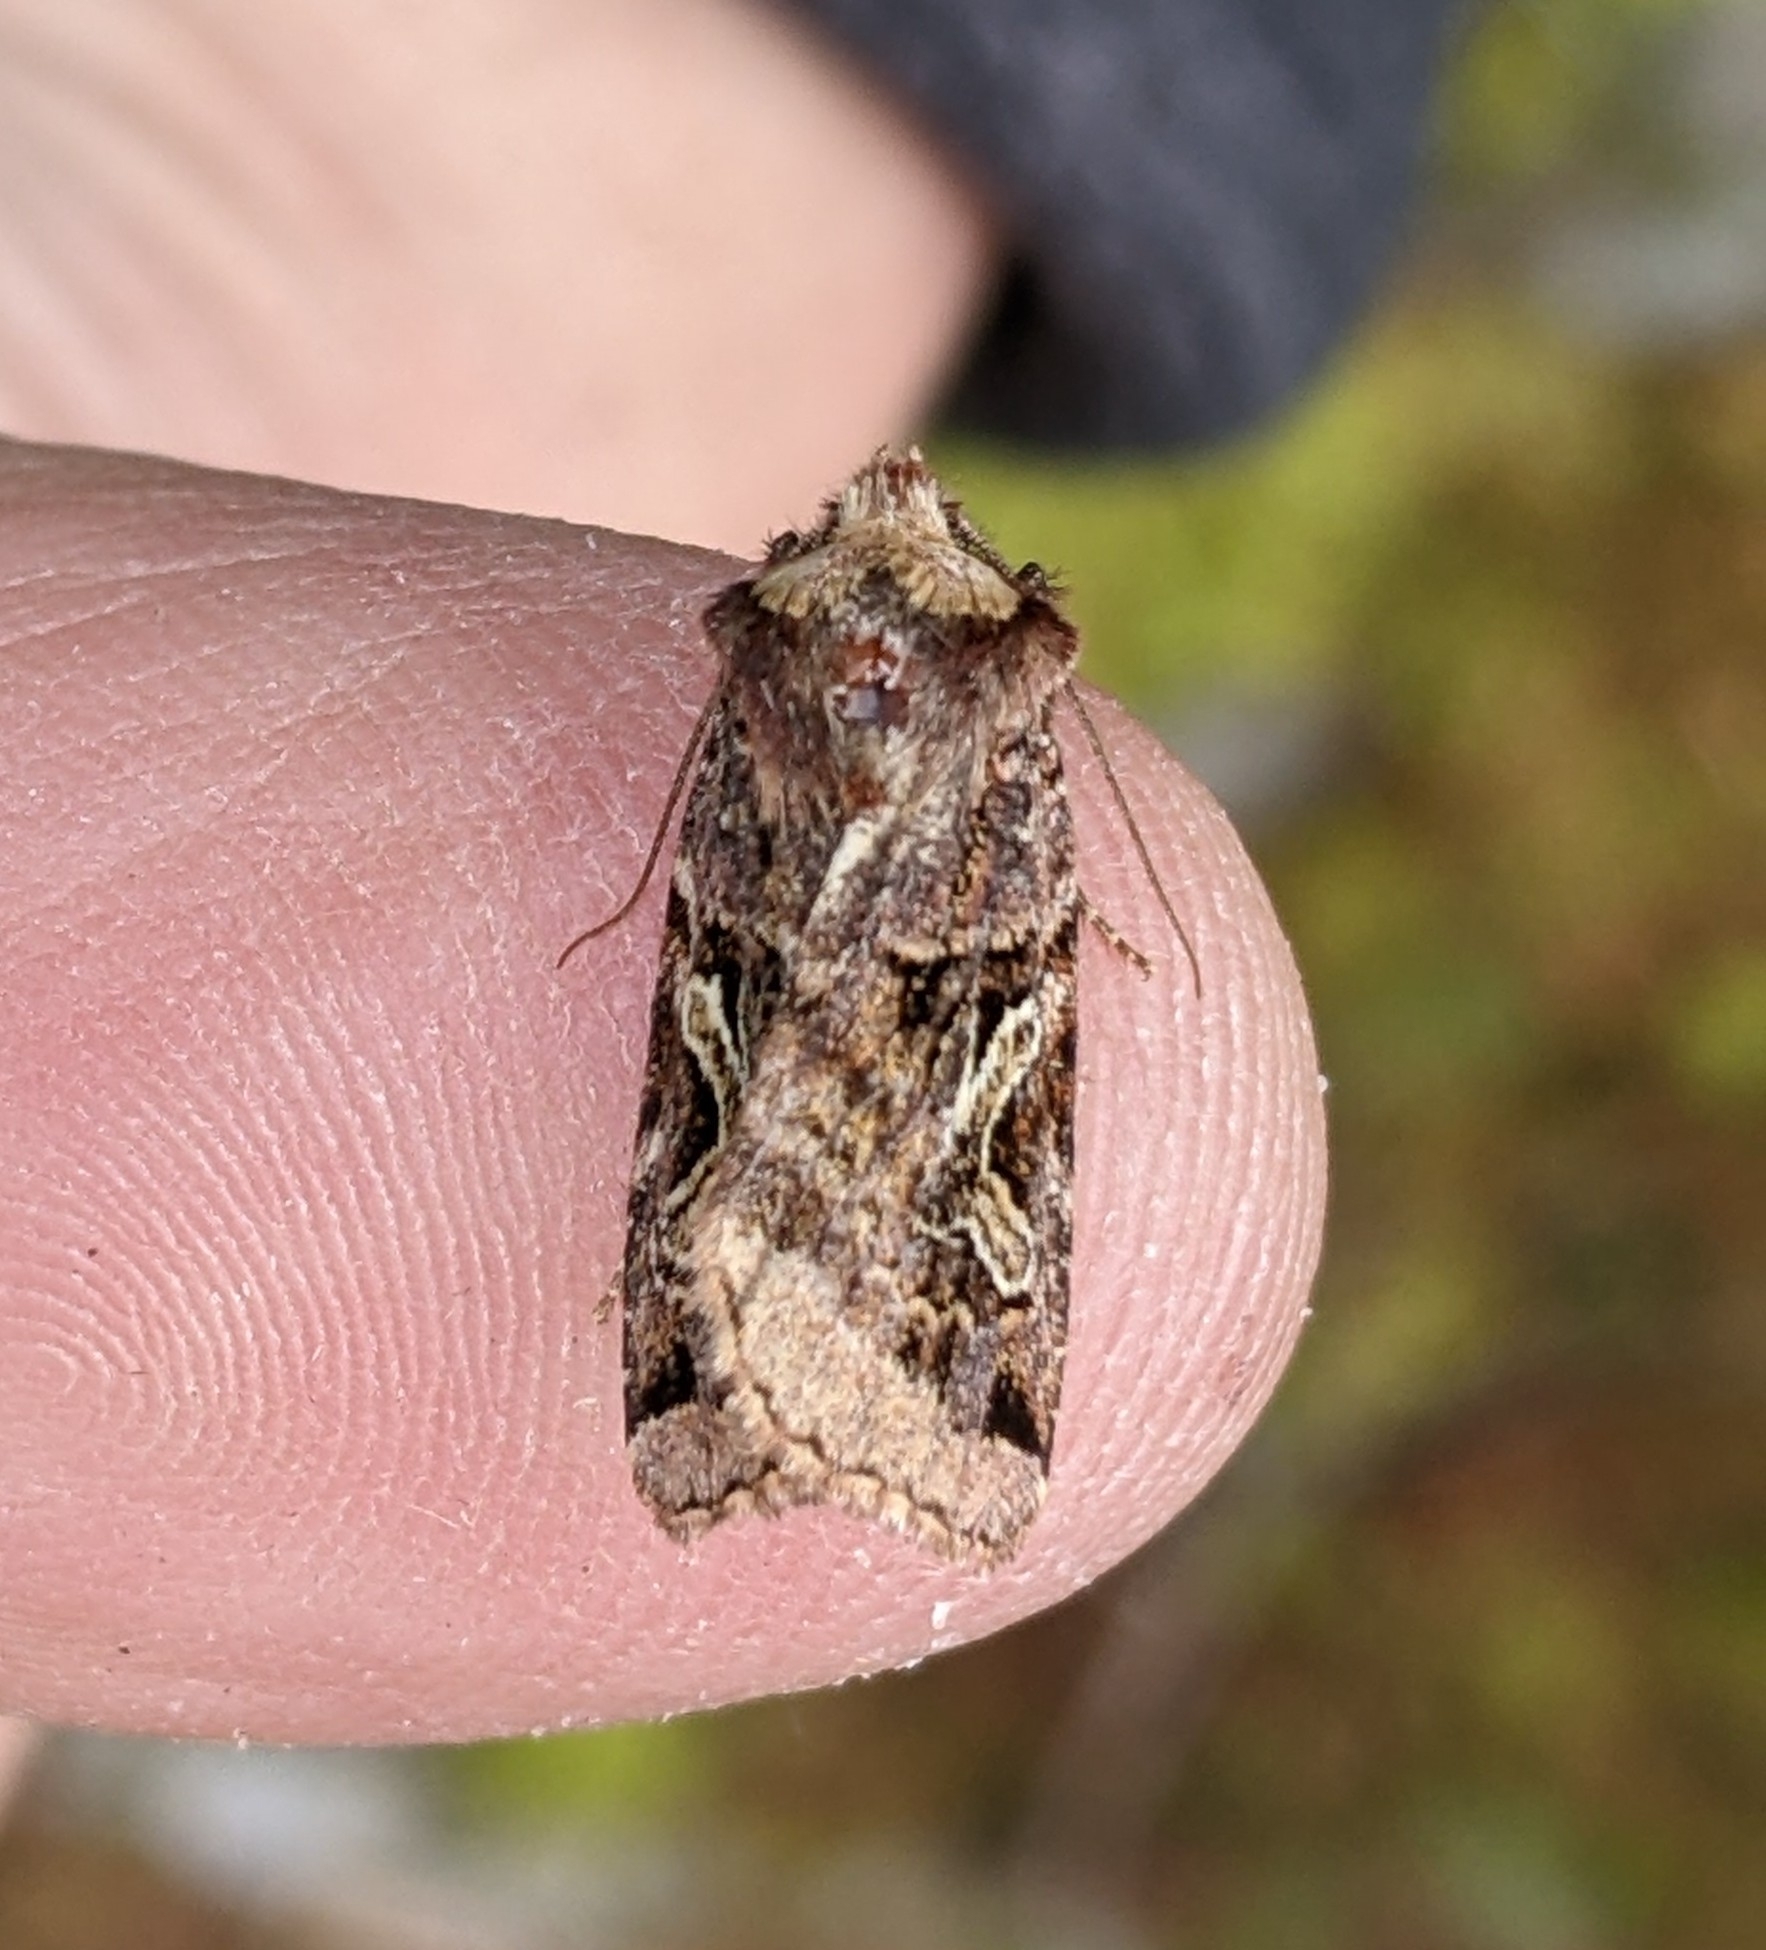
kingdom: Animalia
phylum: Arthropoda
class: Insecta
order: Lepidoptera
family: Noctuidae
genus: Cerastis
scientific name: Cerastis enigmatica
